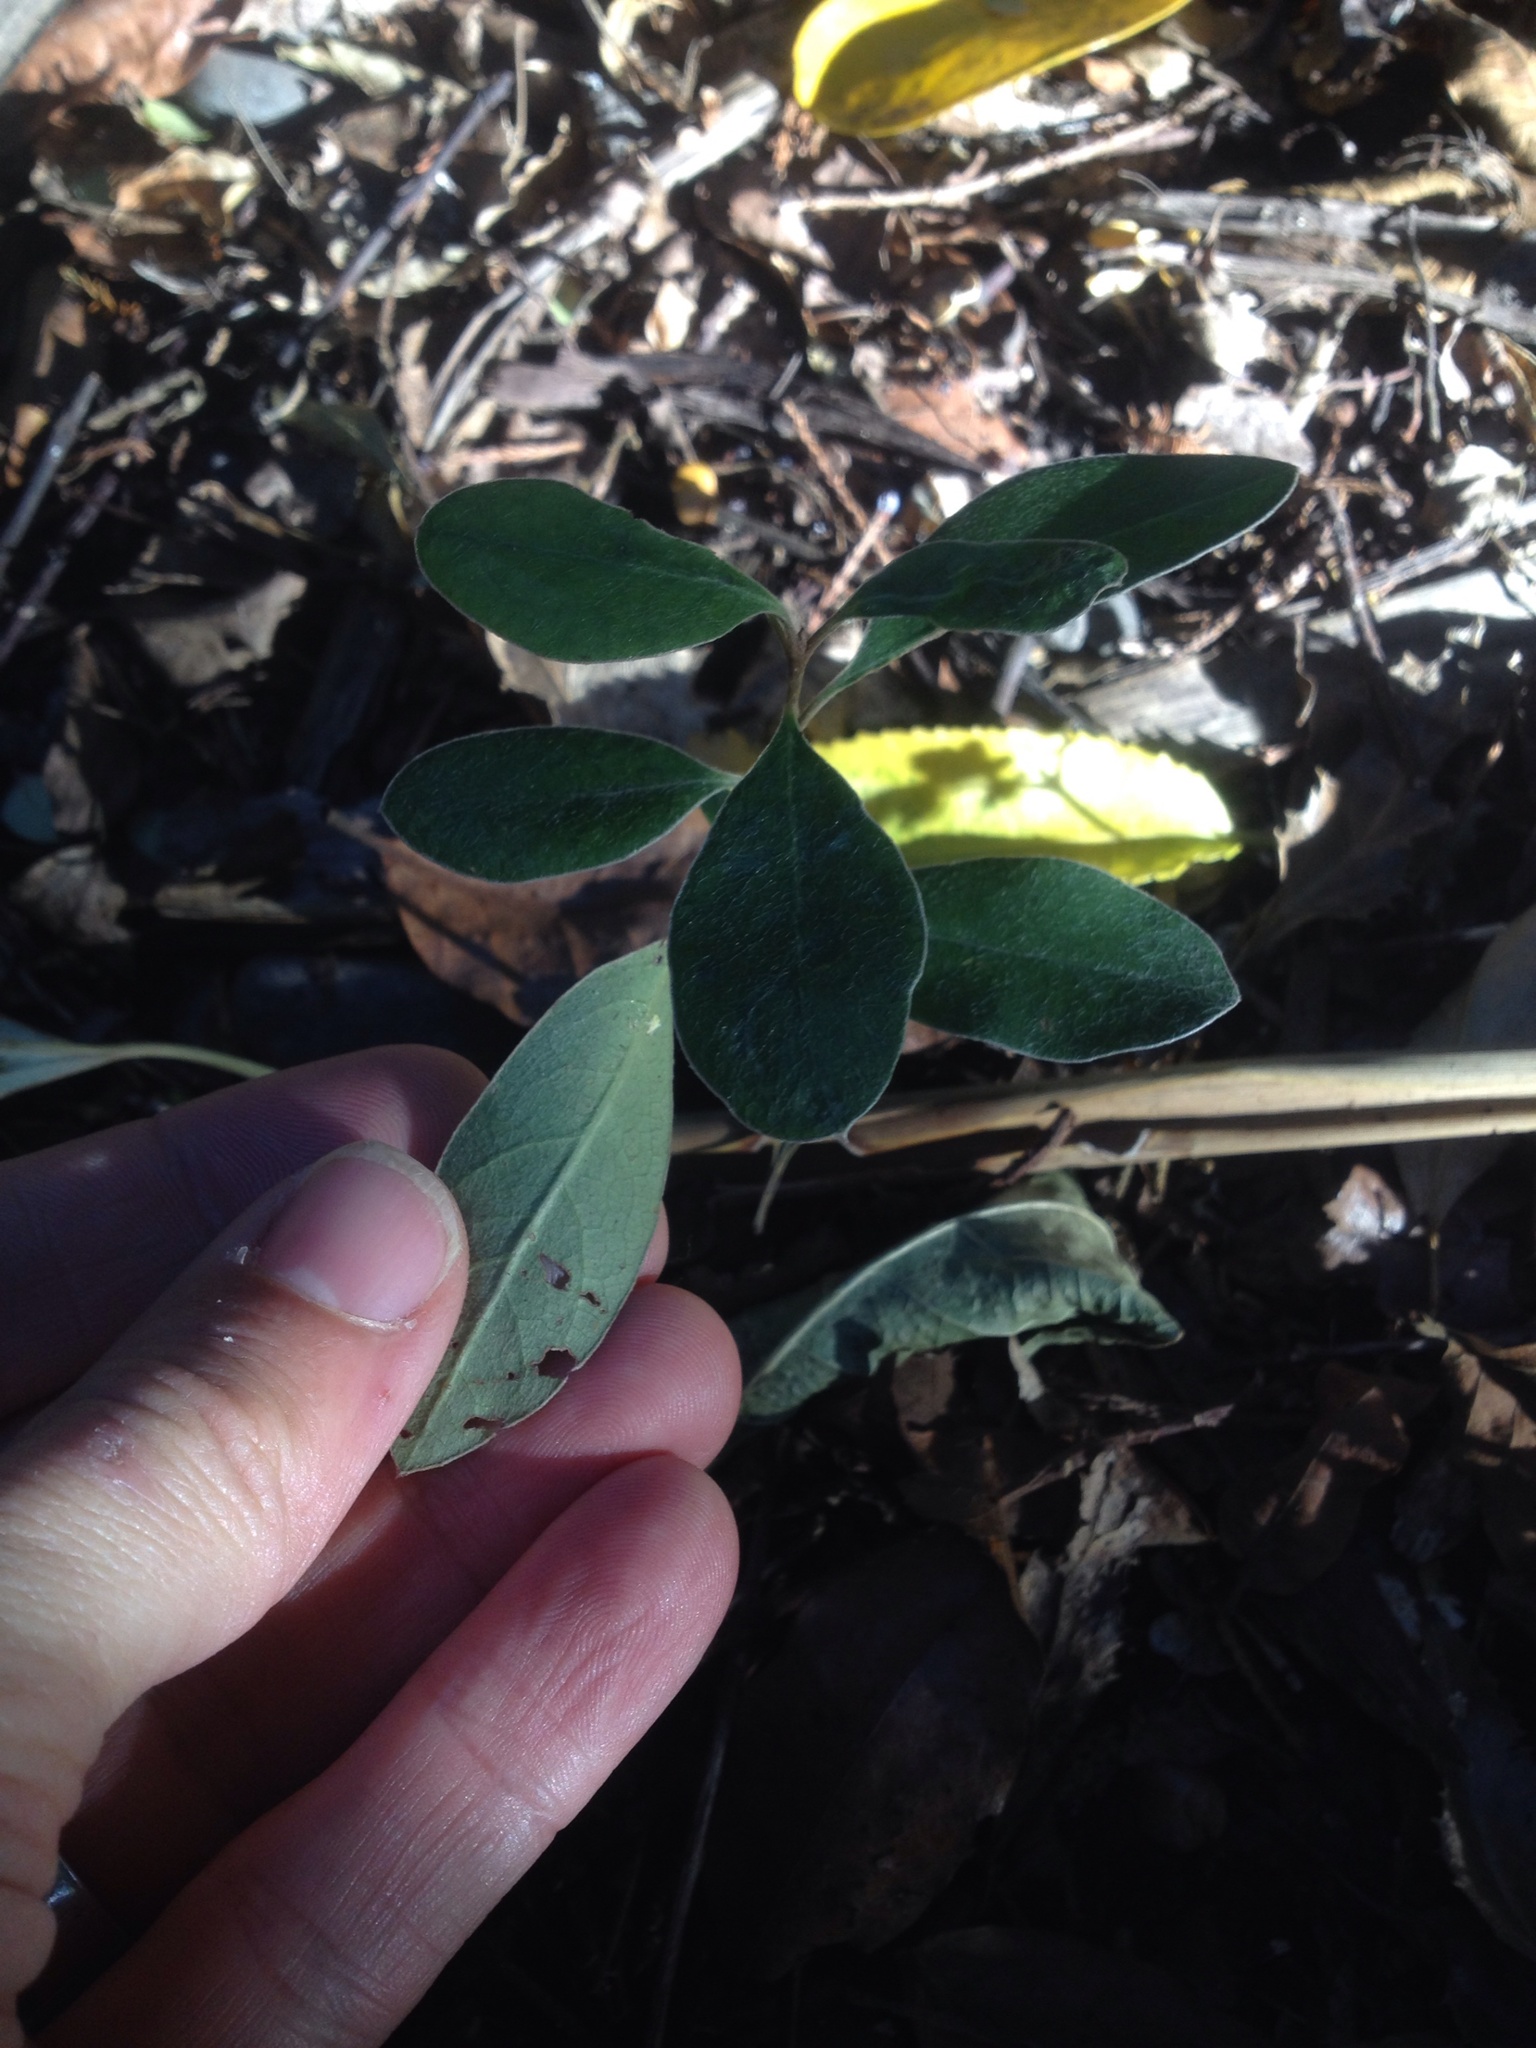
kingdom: Plantae
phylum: Tracheophyta
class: Magnoliopsida
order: Apiales
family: Pittosporaceae
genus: Pittosporum
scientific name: Pittosporum crassifolium
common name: Karo
